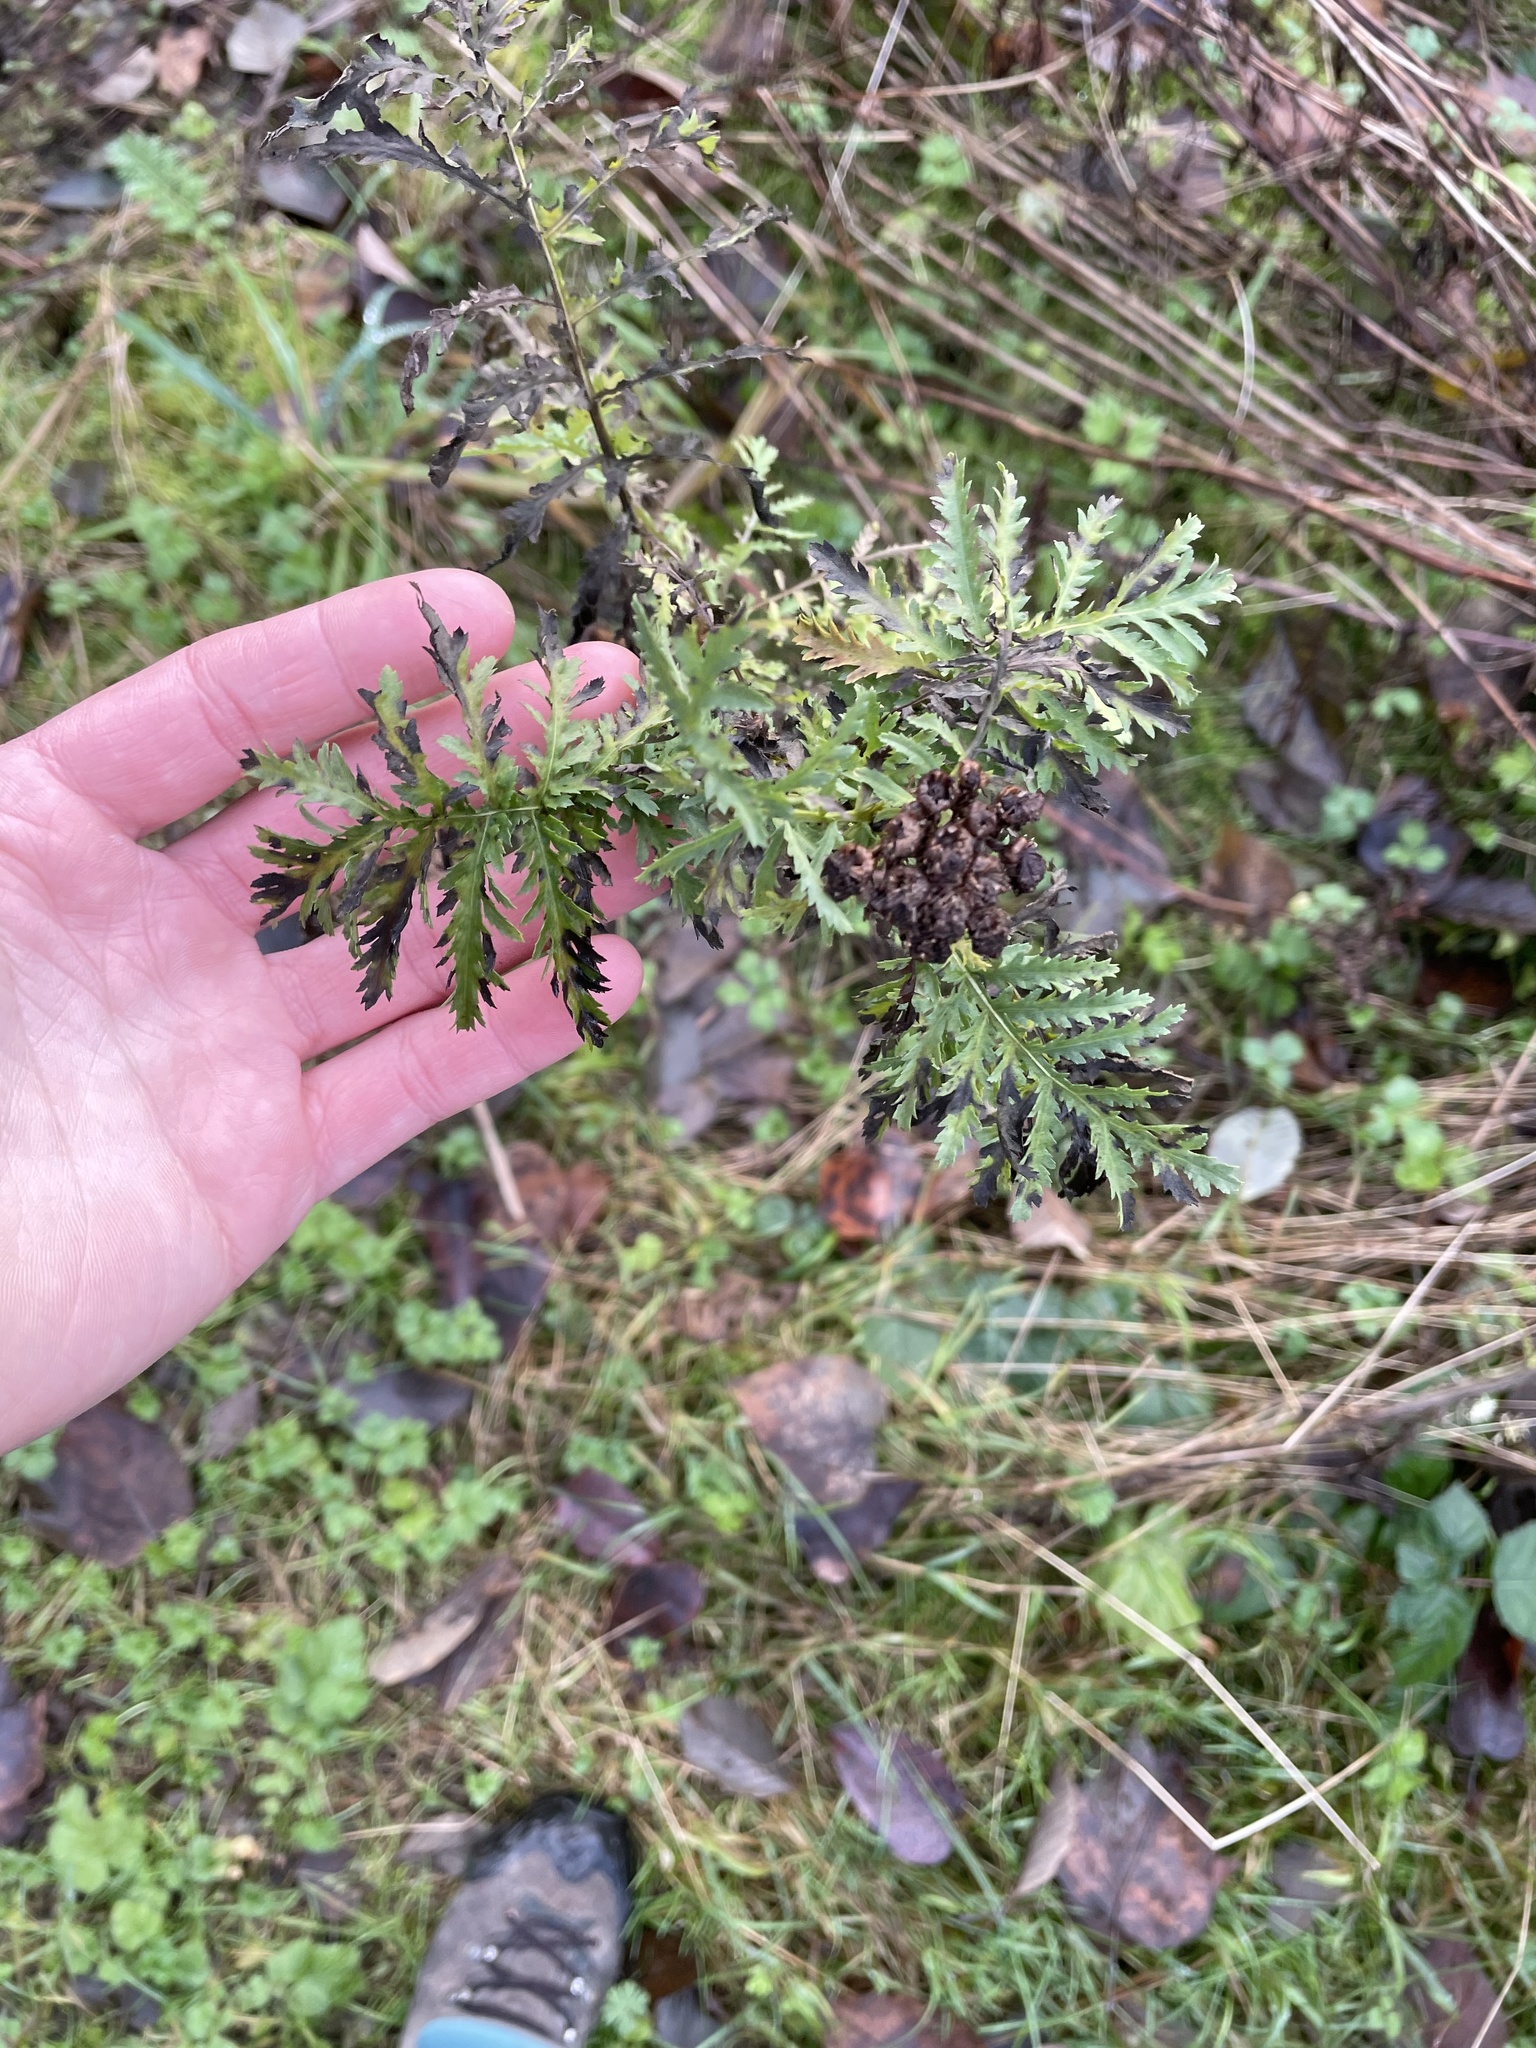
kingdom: Plantae
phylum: Tracheophyta
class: Magnoliopsida
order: Asterales
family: Asteraceae
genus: Tanacetum
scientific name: Tanacetum vulgare
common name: Common tansy
